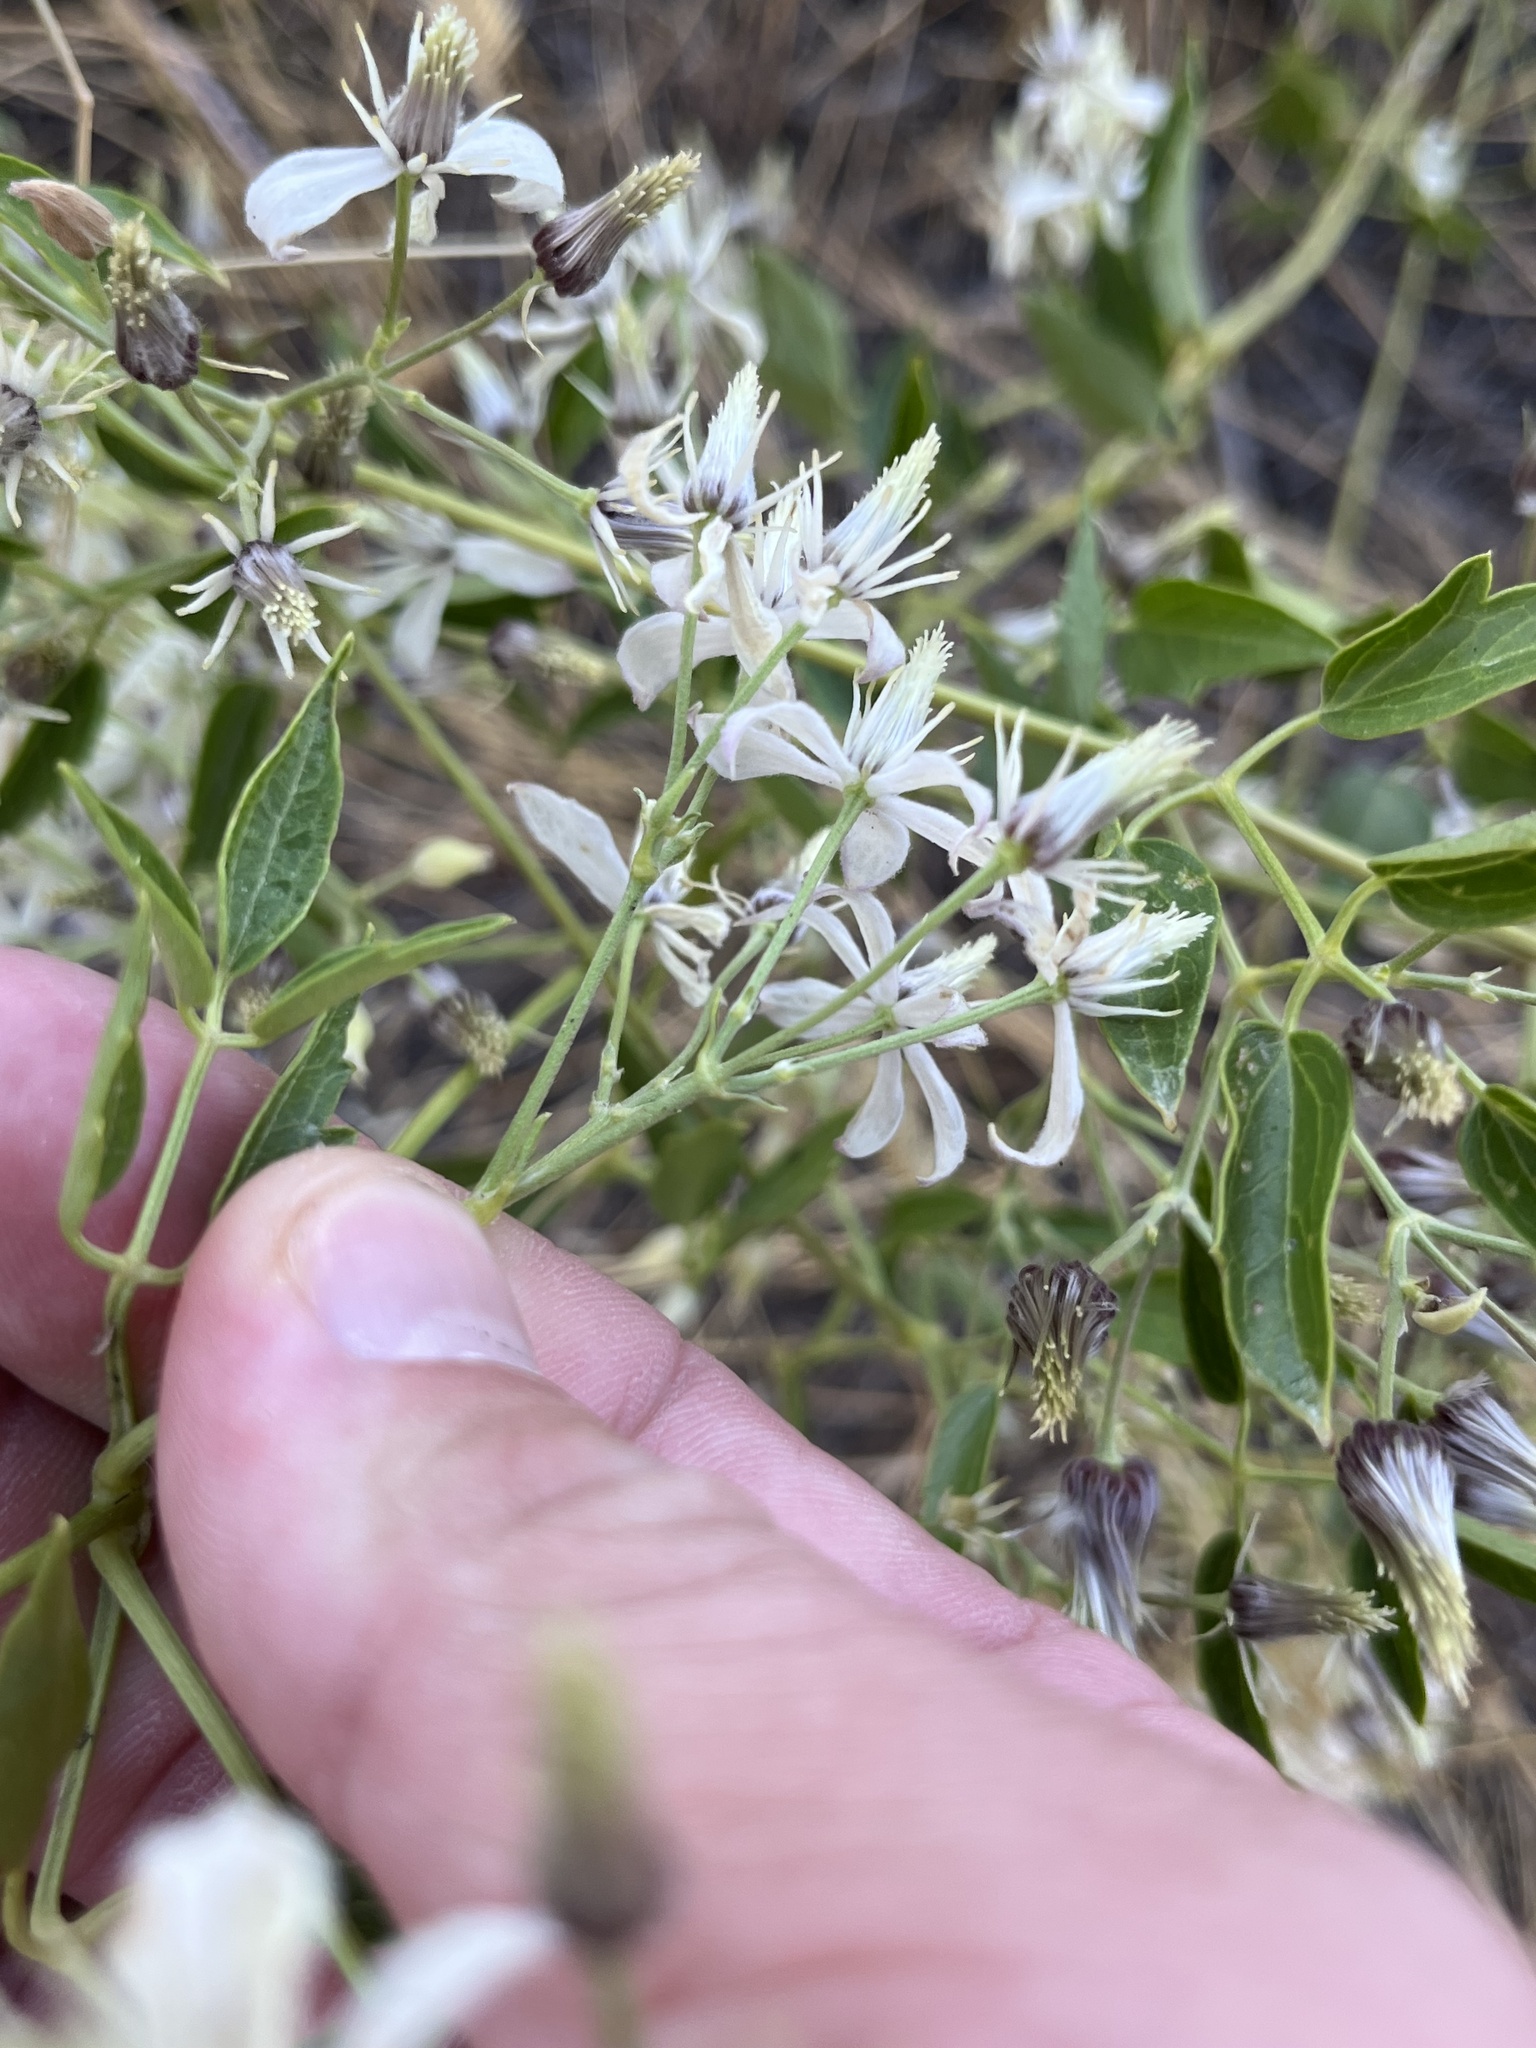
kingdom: Plantae
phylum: Tracheophyta
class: Magnoliopsida
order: Ranunculales
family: Ranunculaceae
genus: Clematis
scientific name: Clematis ligusticifolia
